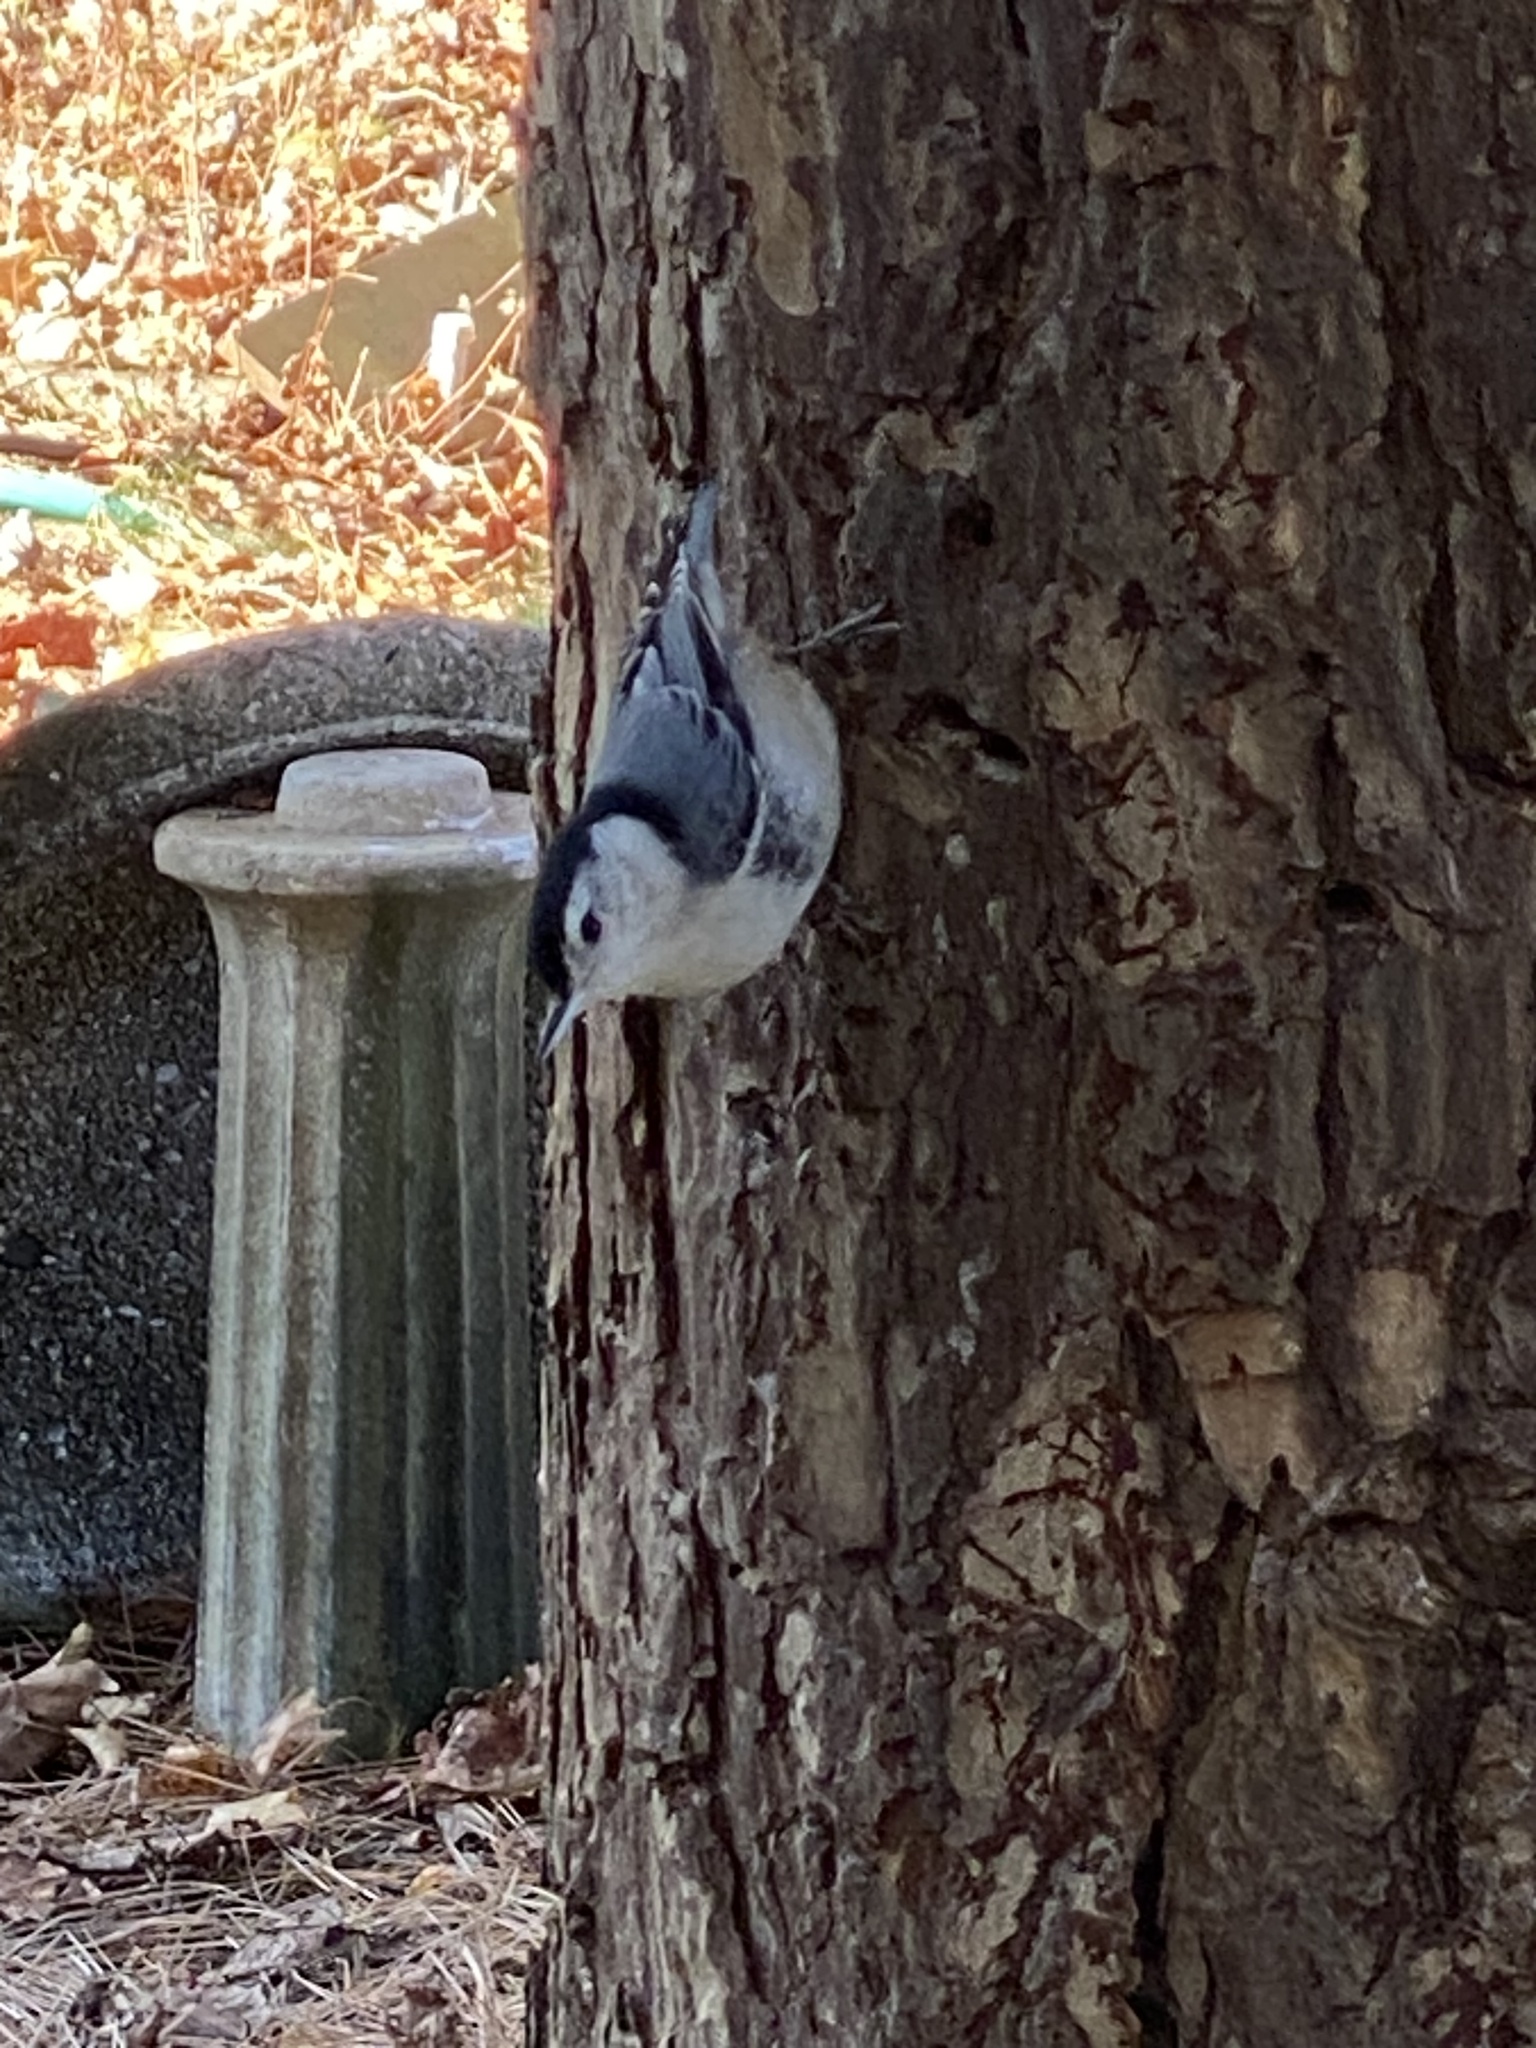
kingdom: Animalia
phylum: Chordata
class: Aves
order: Passeriformes
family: Sittidae
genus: Sitta
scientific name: Sitta carolinensis
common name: White-breasted nuthatch
